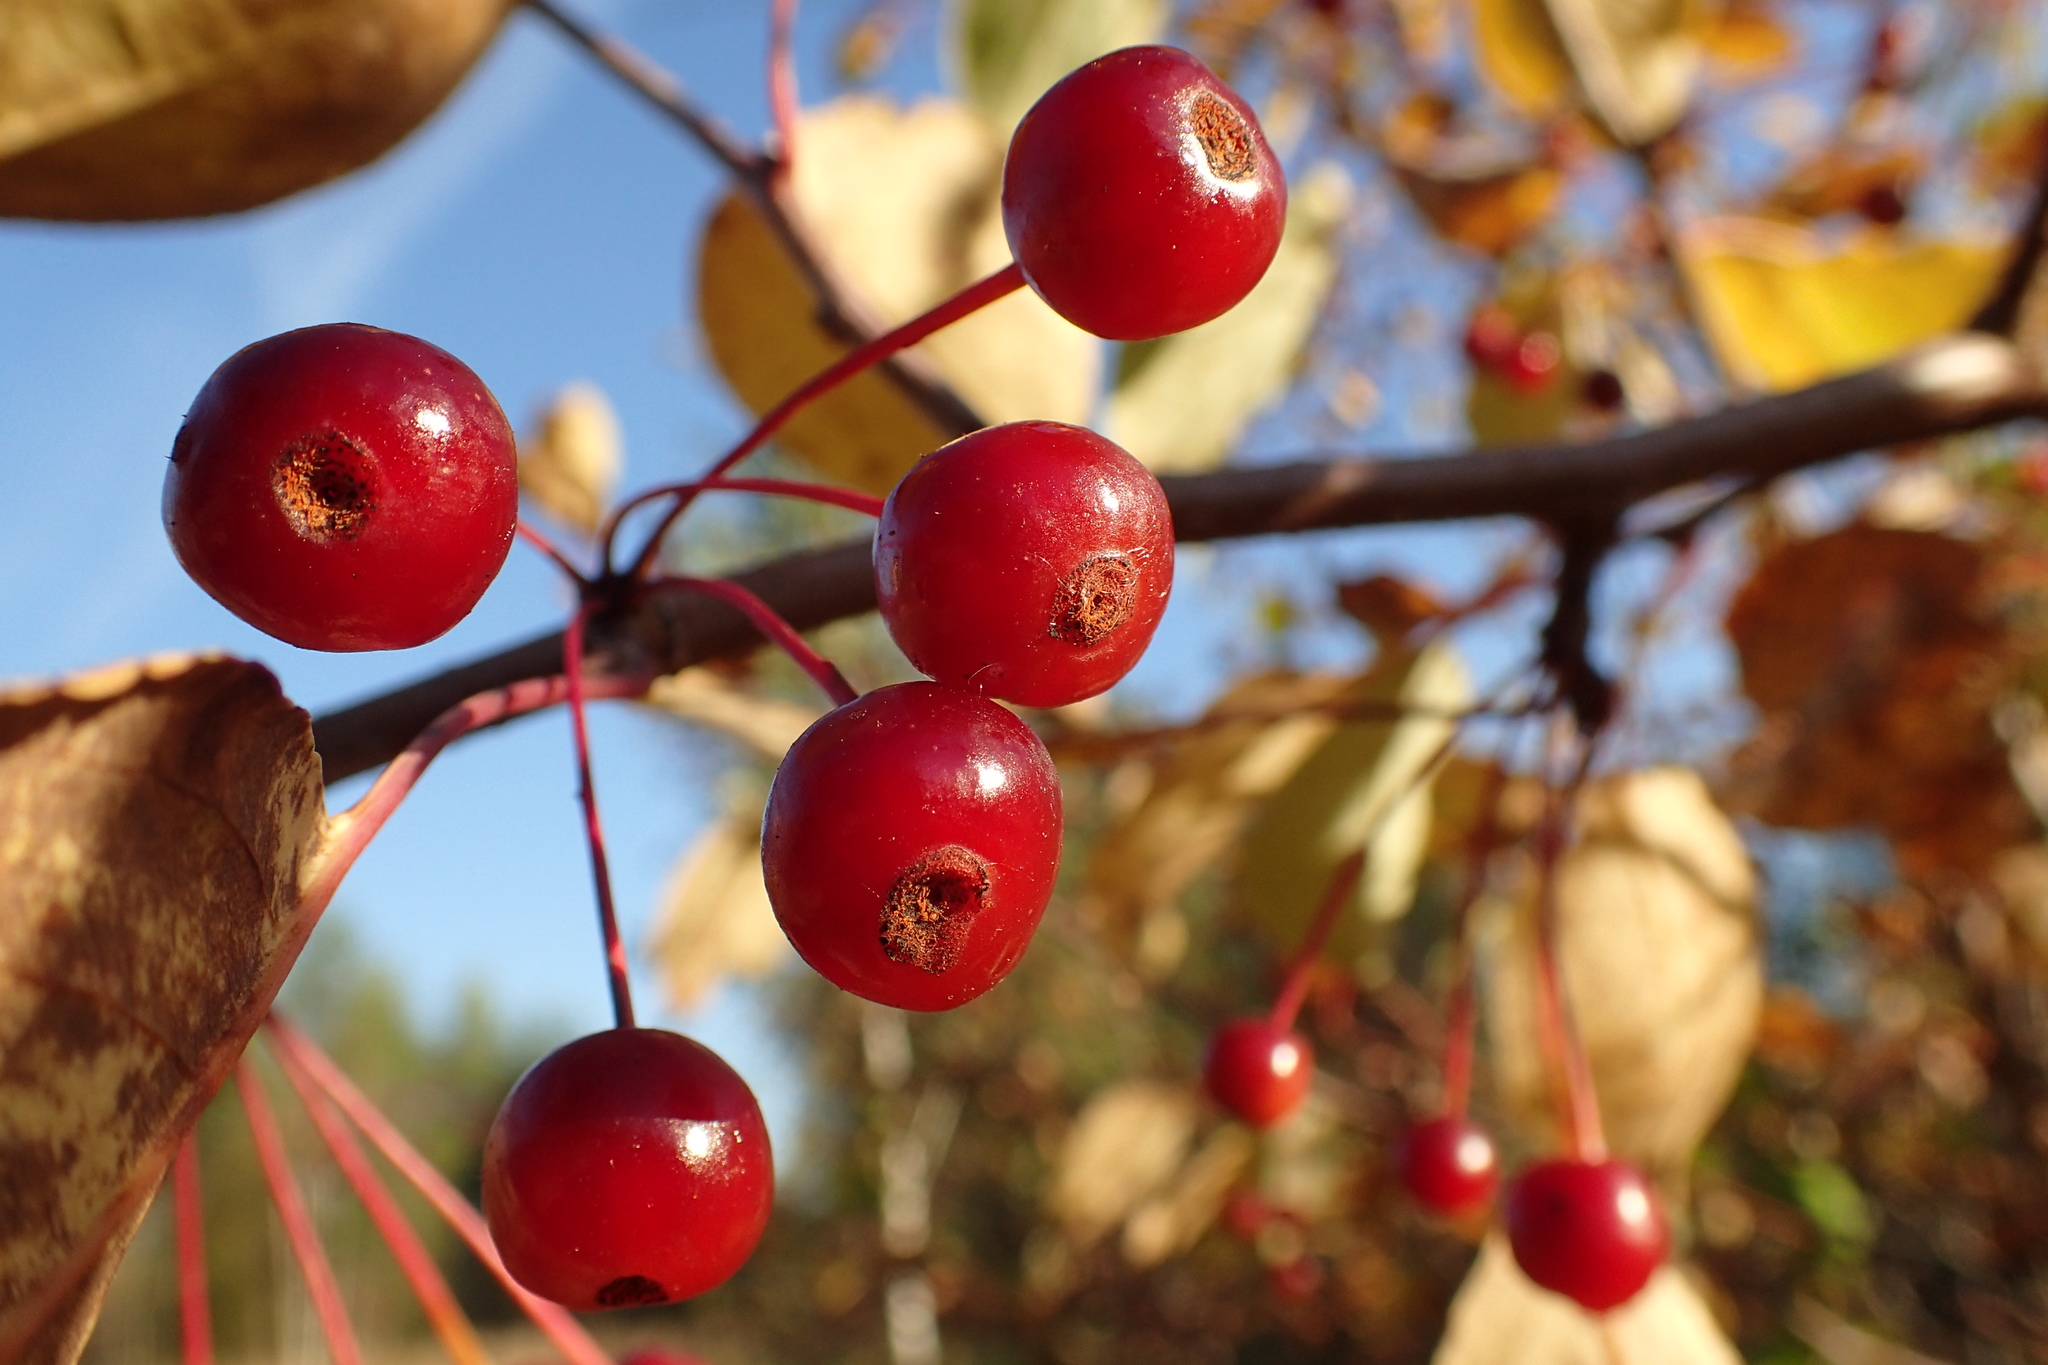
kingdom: Plantae
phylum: Tracheophyta
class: Magnoliopsida
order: Rosales
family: Rosaceae
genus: Malus
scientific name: Malus baccata
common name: Siberian crab
